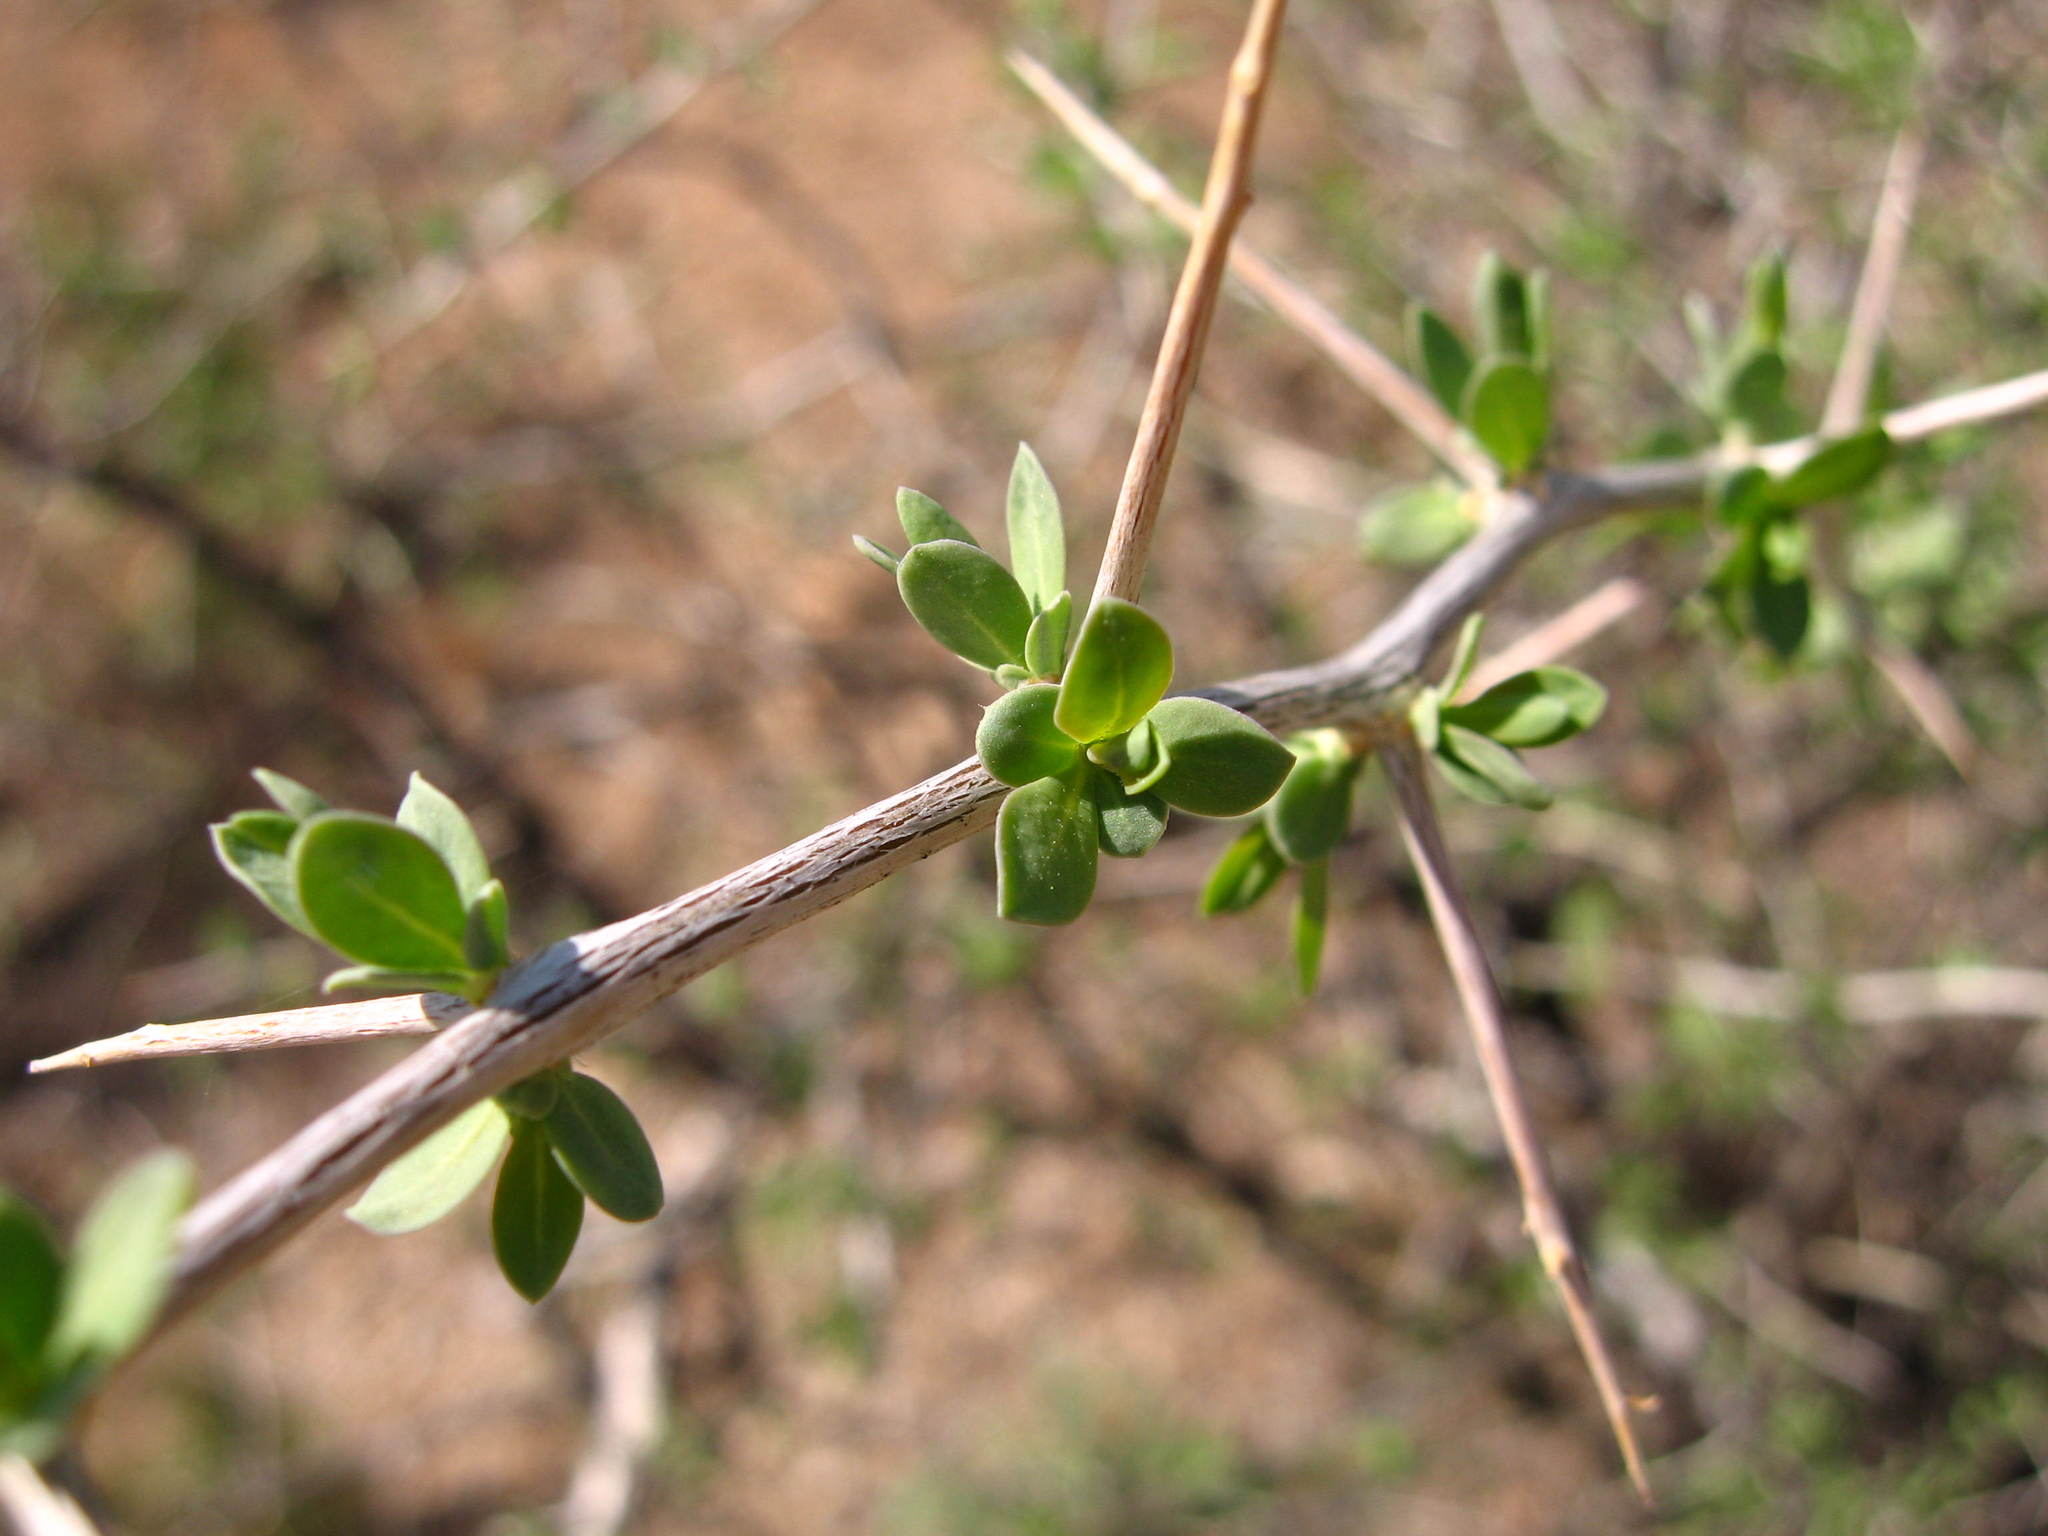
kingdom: Plantae
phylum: Tracheophyta
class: Magnoliopsida
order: Solanales
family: Solanaceae
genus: Lycium
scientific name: Lycium pallidum
